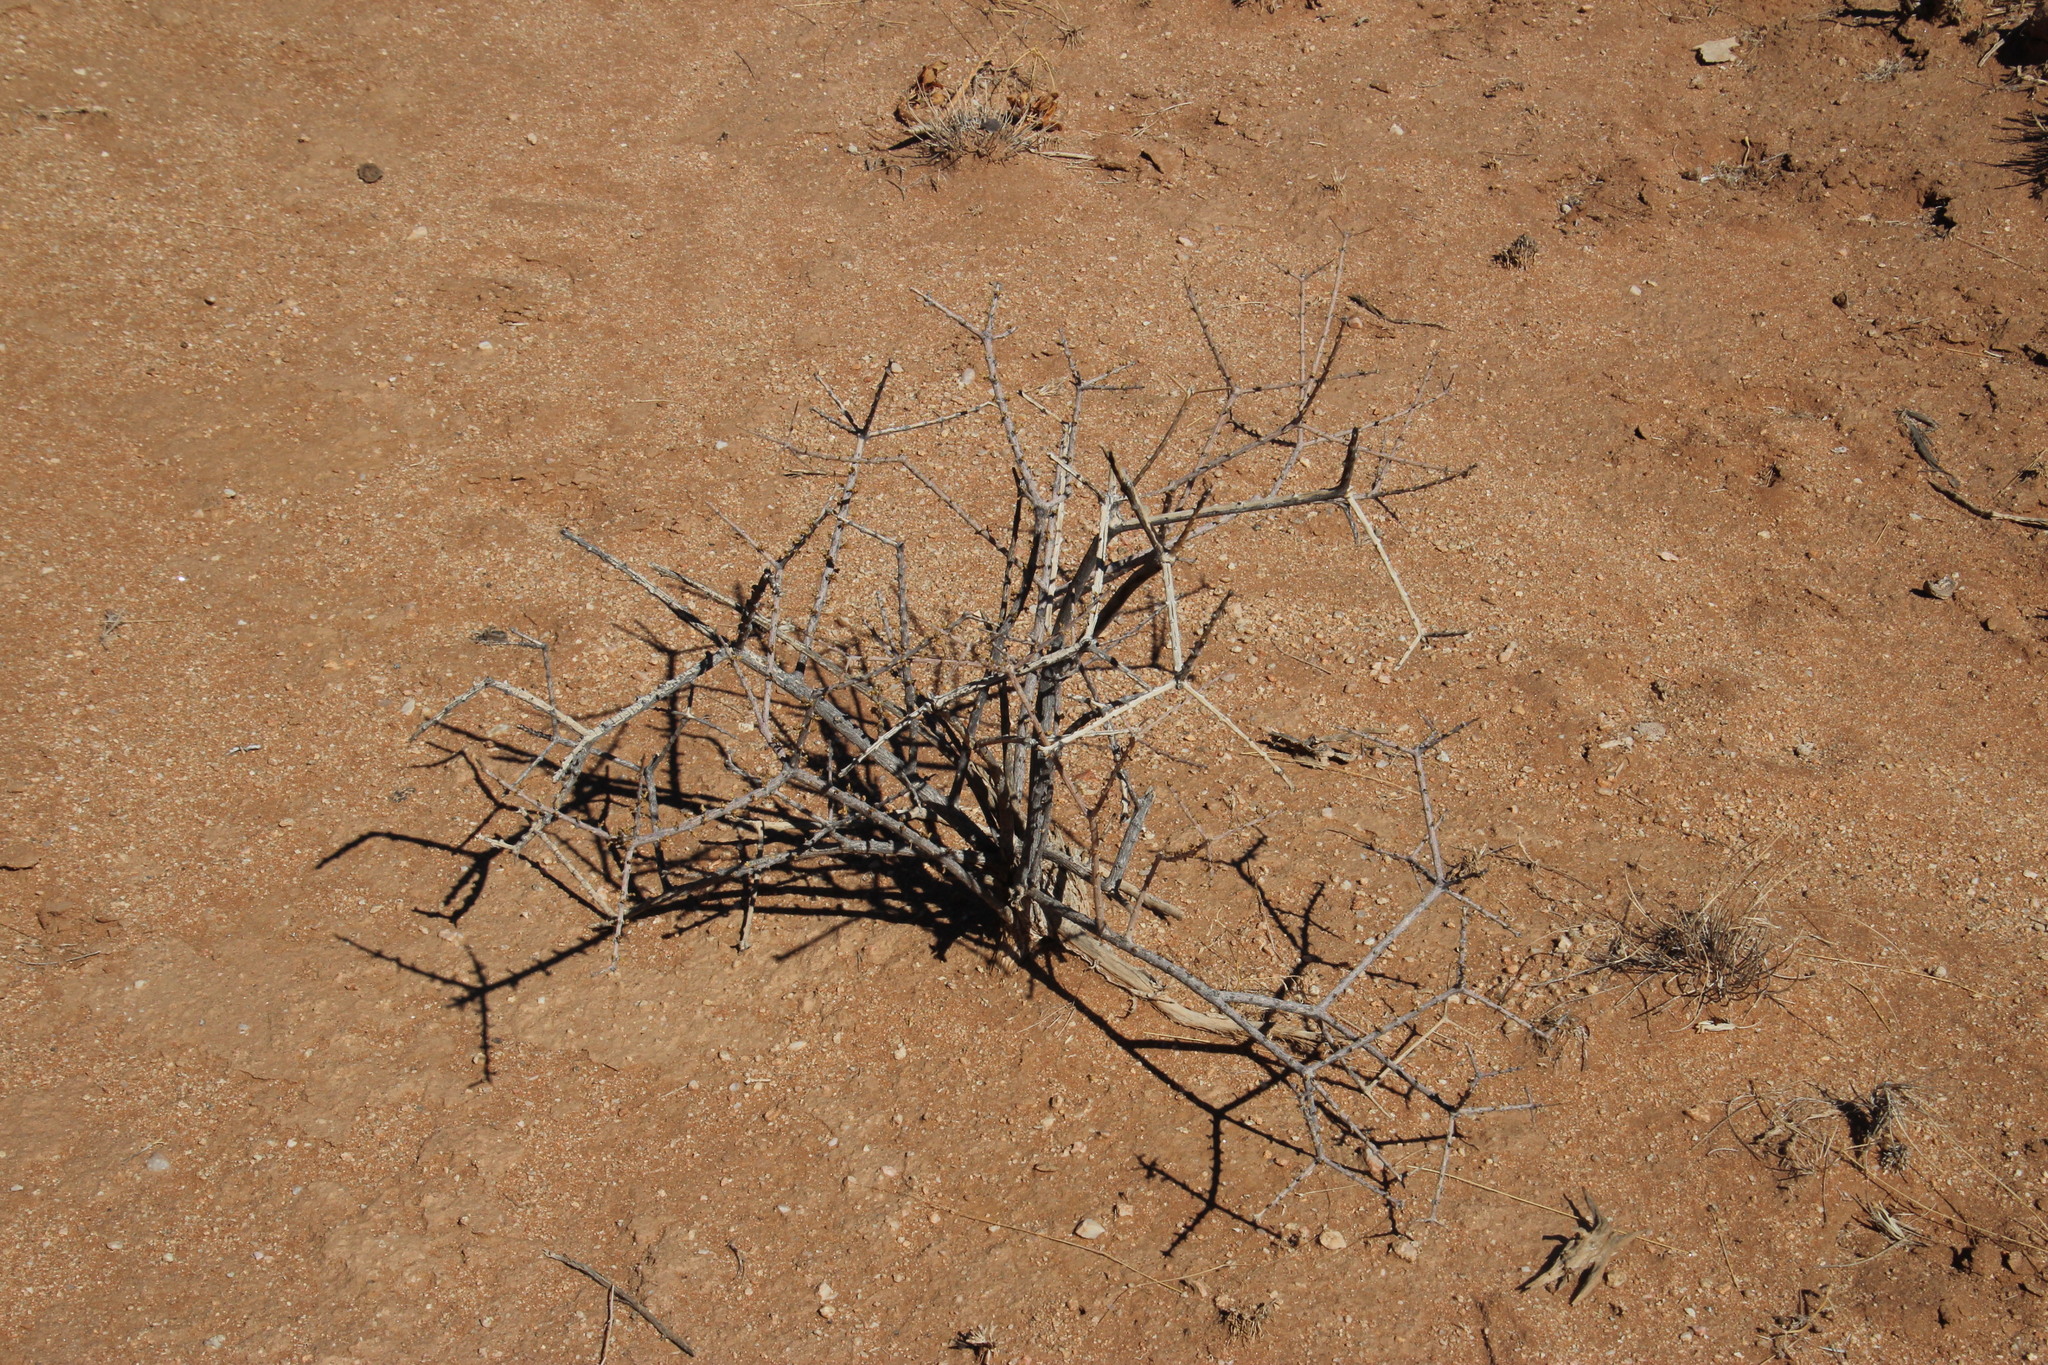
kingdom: Plantae
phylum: Tracheophyta
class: Magnoliopsida
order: Lamiales
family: Bignoniaceae
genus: Rhigozum
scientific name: Rhigozum trichotomum
